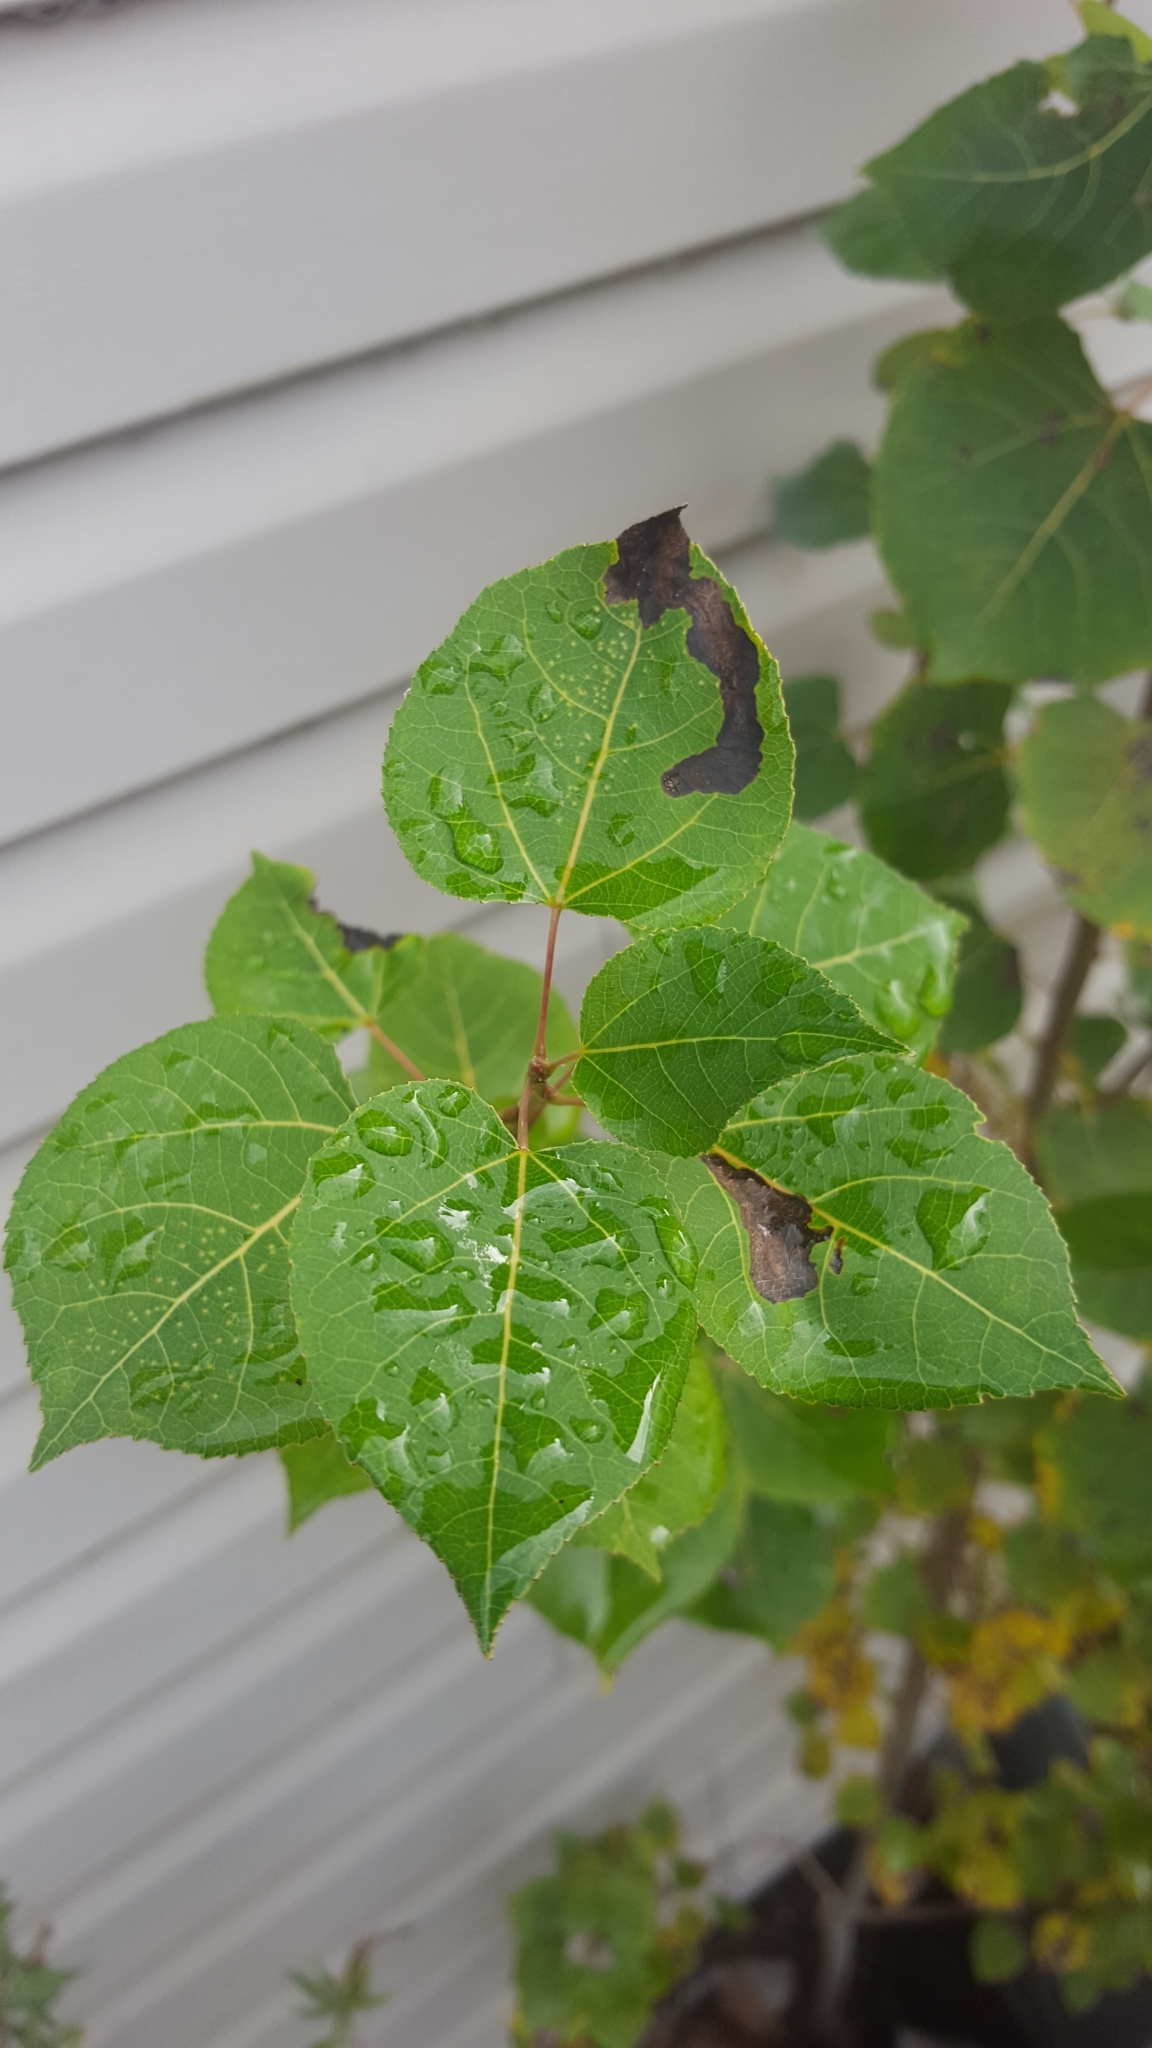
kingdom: Plantae
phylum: Tracheophyta
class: Magnoliopsida
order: Malpighiales
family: Salicaceae
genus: Populus
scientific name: Populus tremuloides
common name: Quaking aspen
